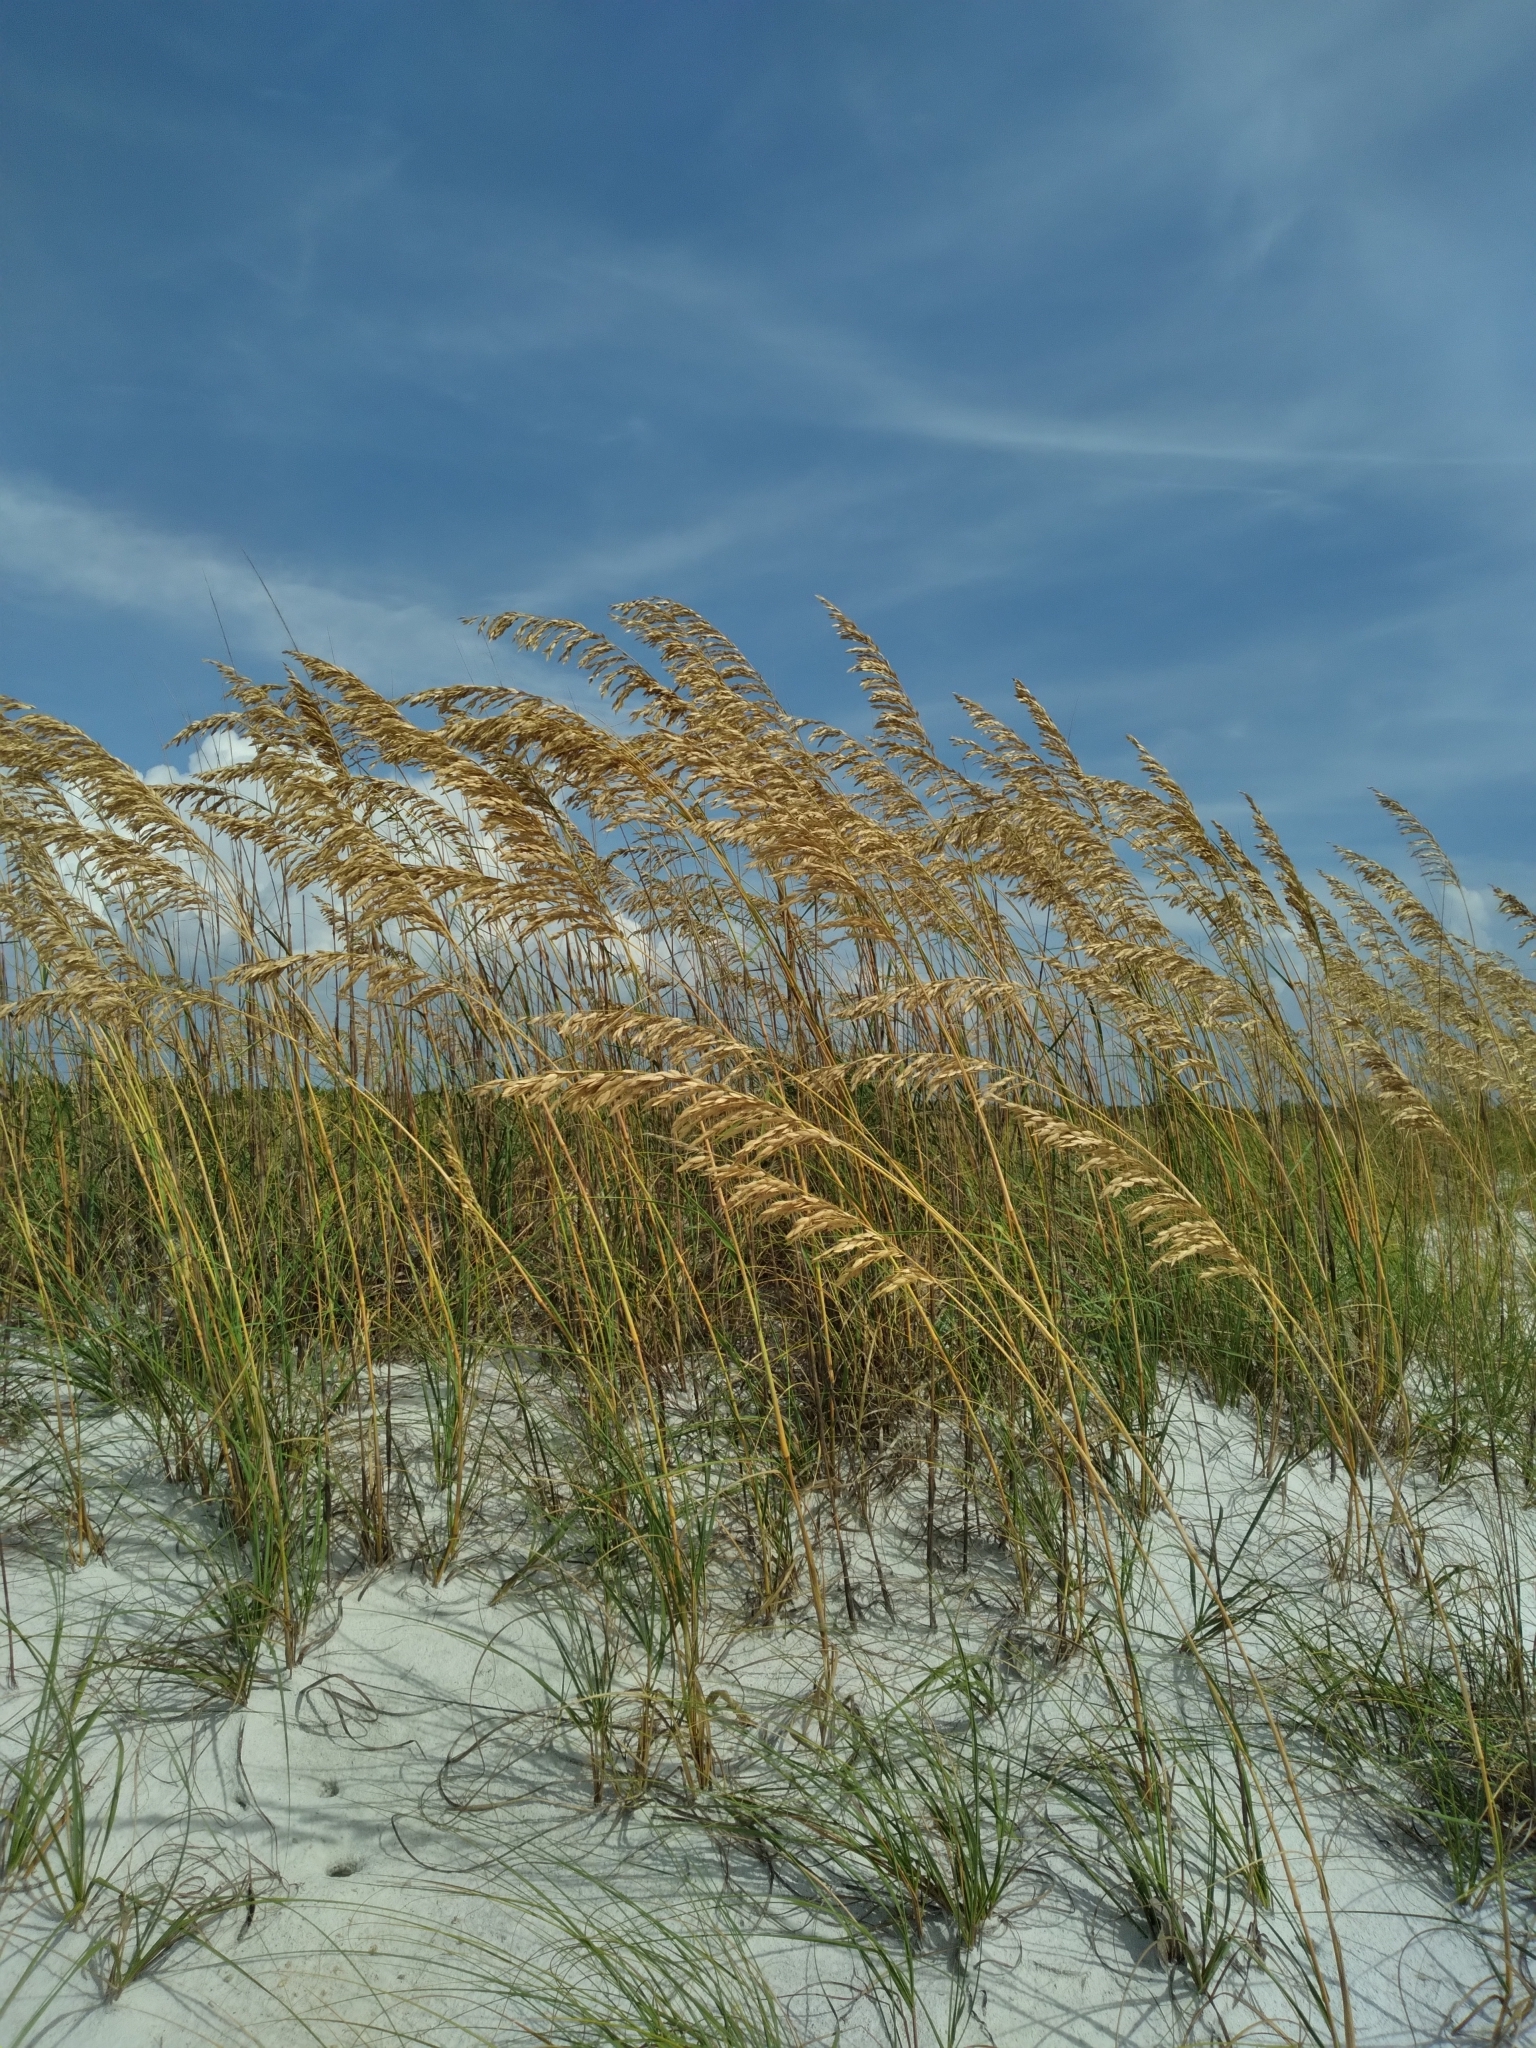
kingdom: Plantae
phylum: Tracheophyta
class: Liliopsida
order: Poales
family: Poaceae
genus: Uniola
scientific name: Uniola paniculata
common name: Seaside-oats
